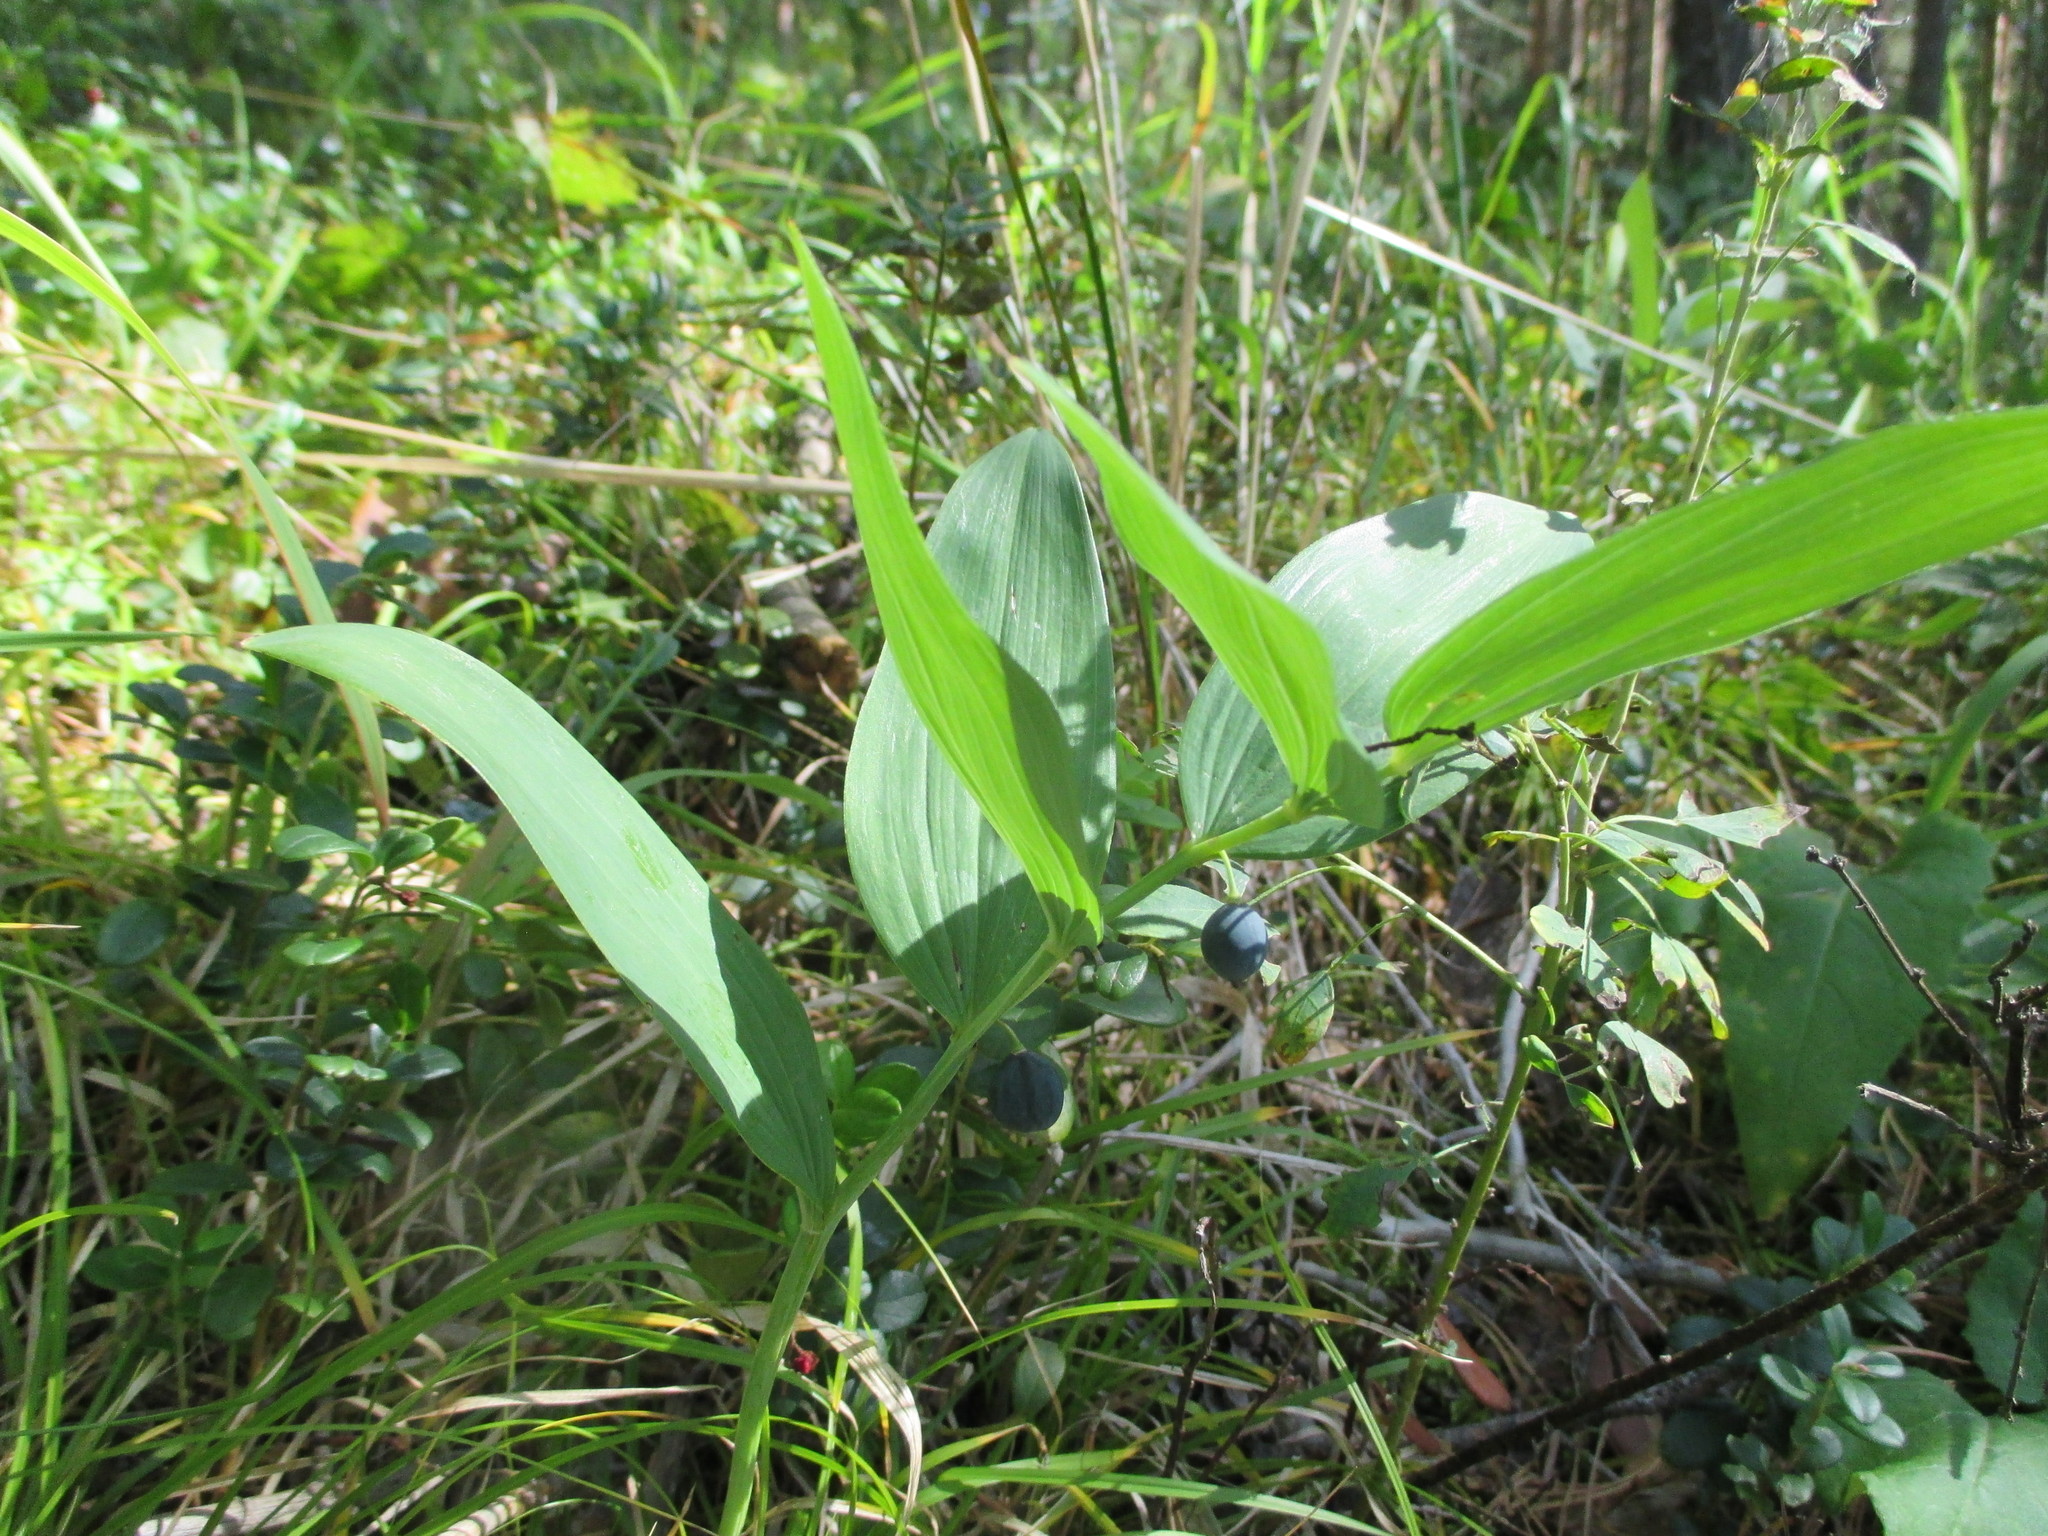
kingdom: Plantae
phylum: Tracheophyta
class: Liliopsida
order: Asparagales
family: Asparagaceae
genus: Polygonatum
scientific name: Polygonatum odoratum
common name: Angular solomon's-seal
